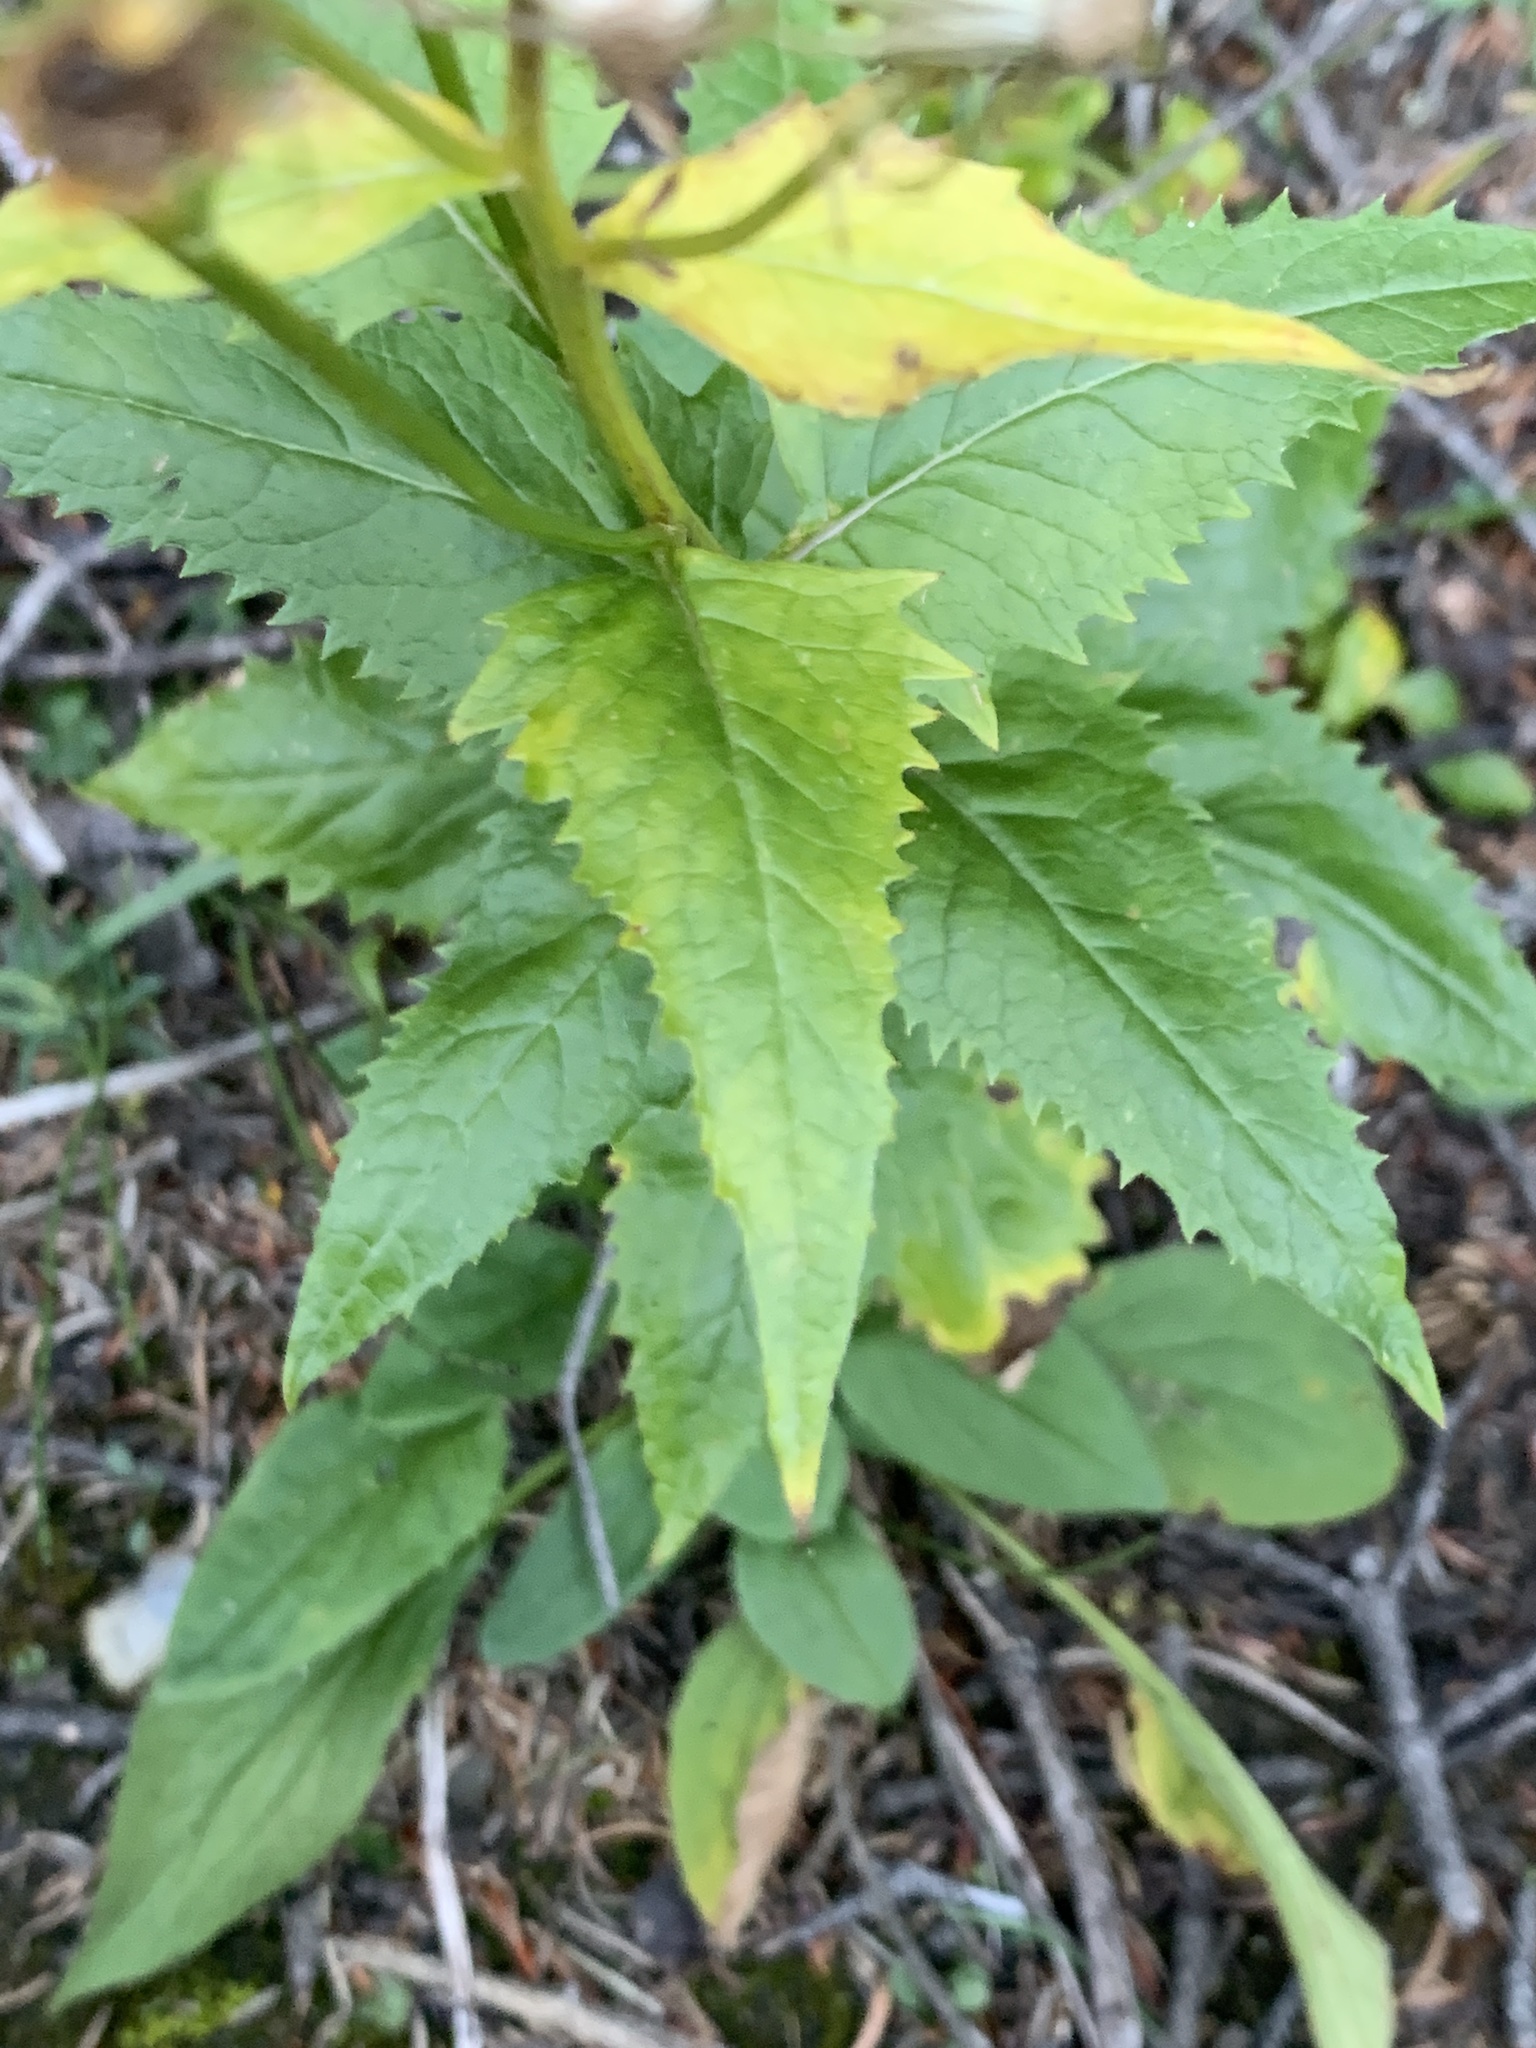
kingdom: Plantae
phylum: Tracheophyta
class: Magnoliopsida
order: Asterales
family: Asteraceae
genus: Senecio
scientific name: Senecio triangularis
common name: Arrowleaf butterweed
